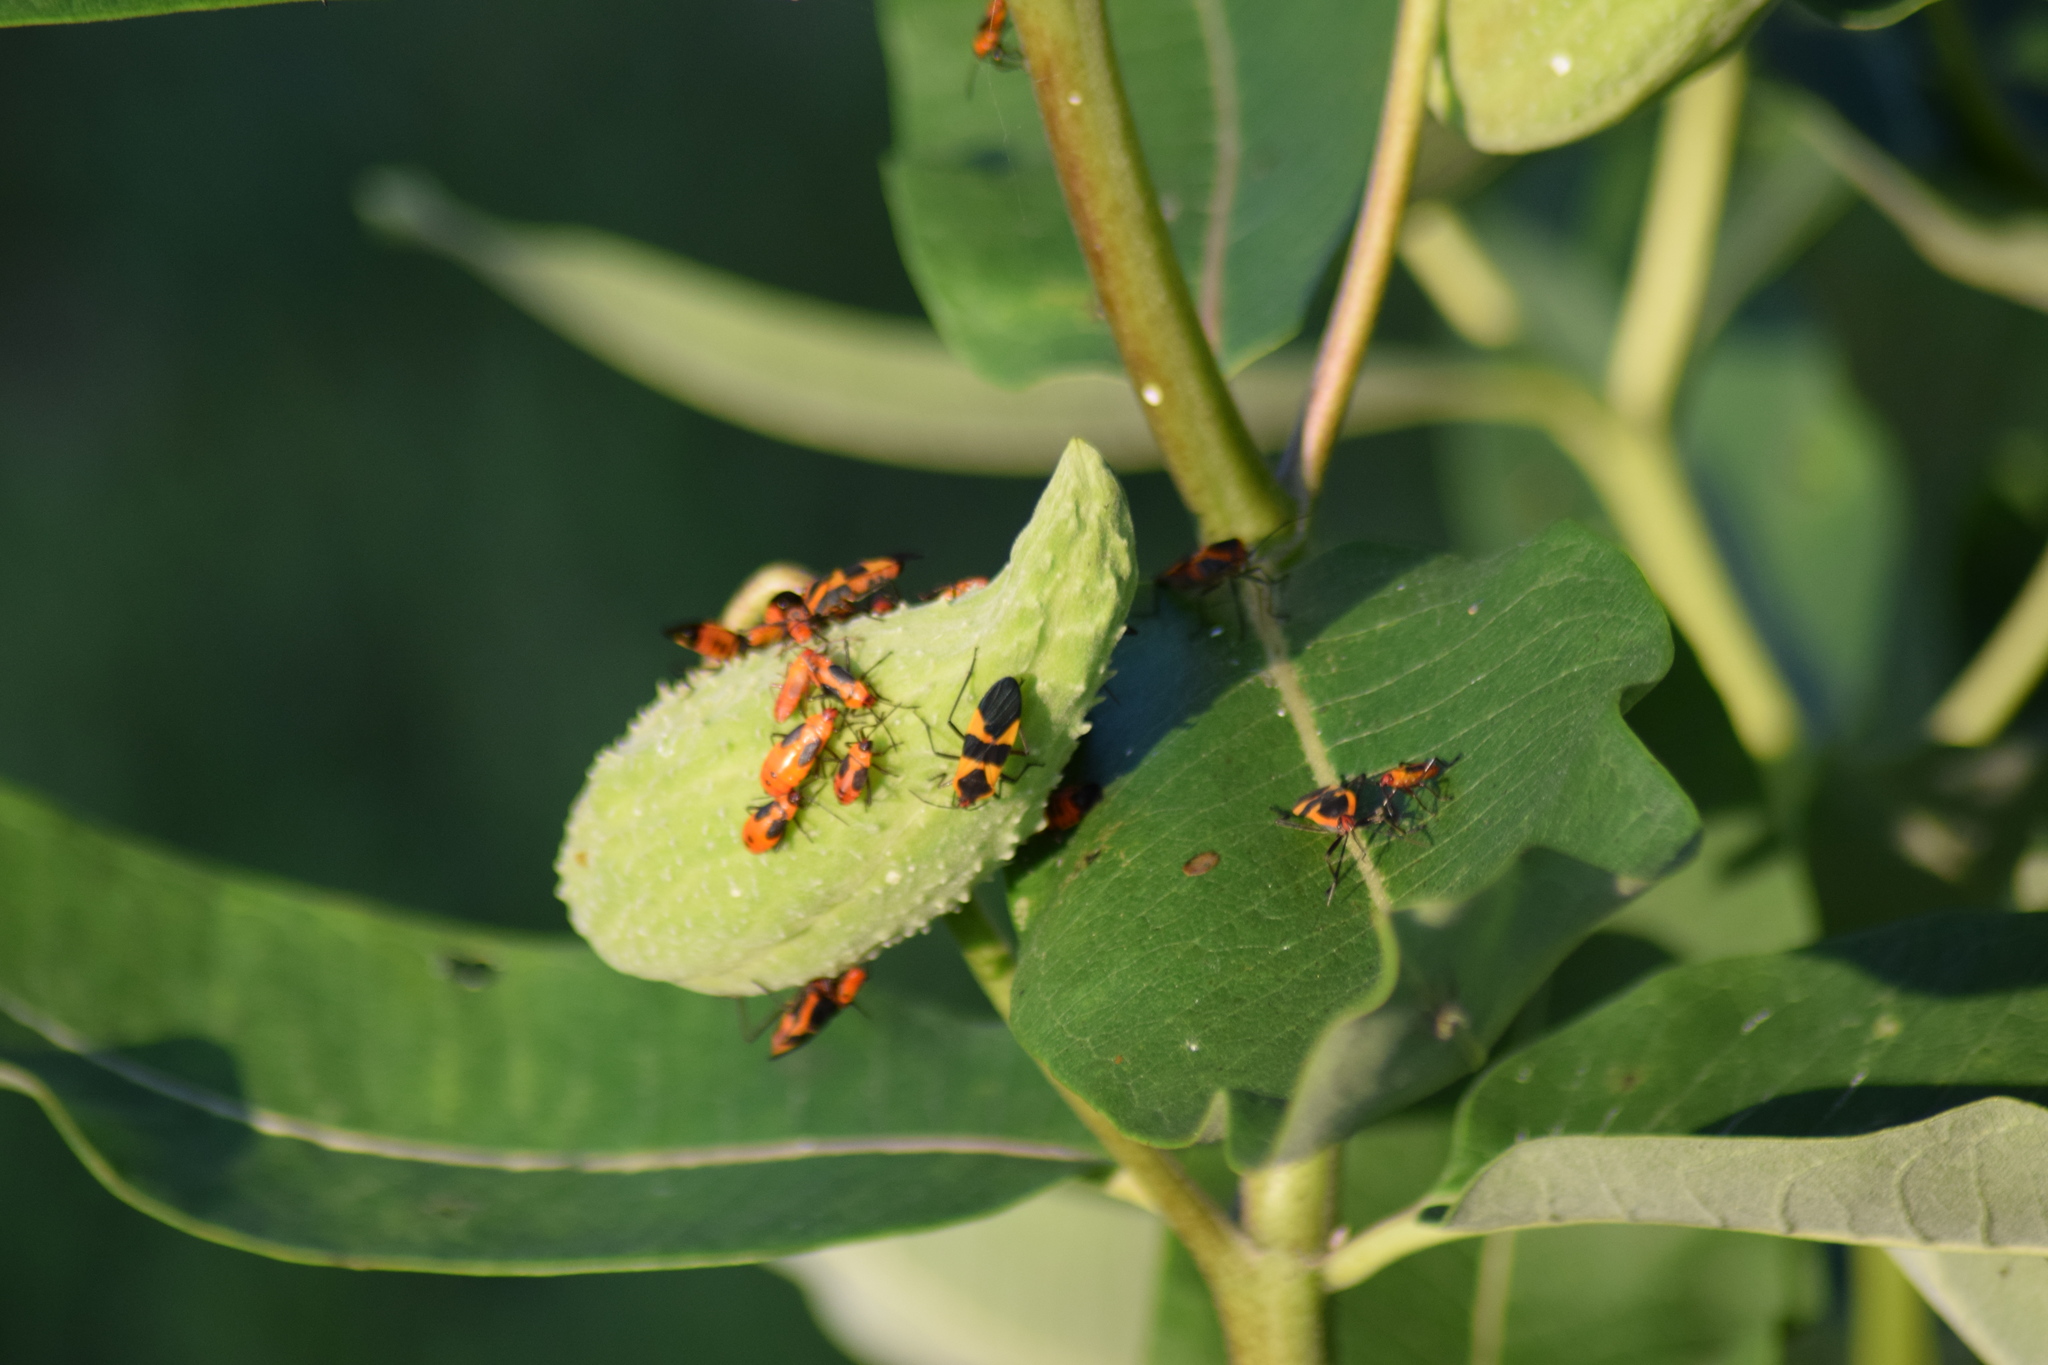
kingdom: Animalia
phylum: Arthropoda
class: Insecta
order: Hemiptera
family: Lygaeidae
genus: Oncopeltus
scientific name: Oncopeltus fasciatus
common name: Large milkweed bug
